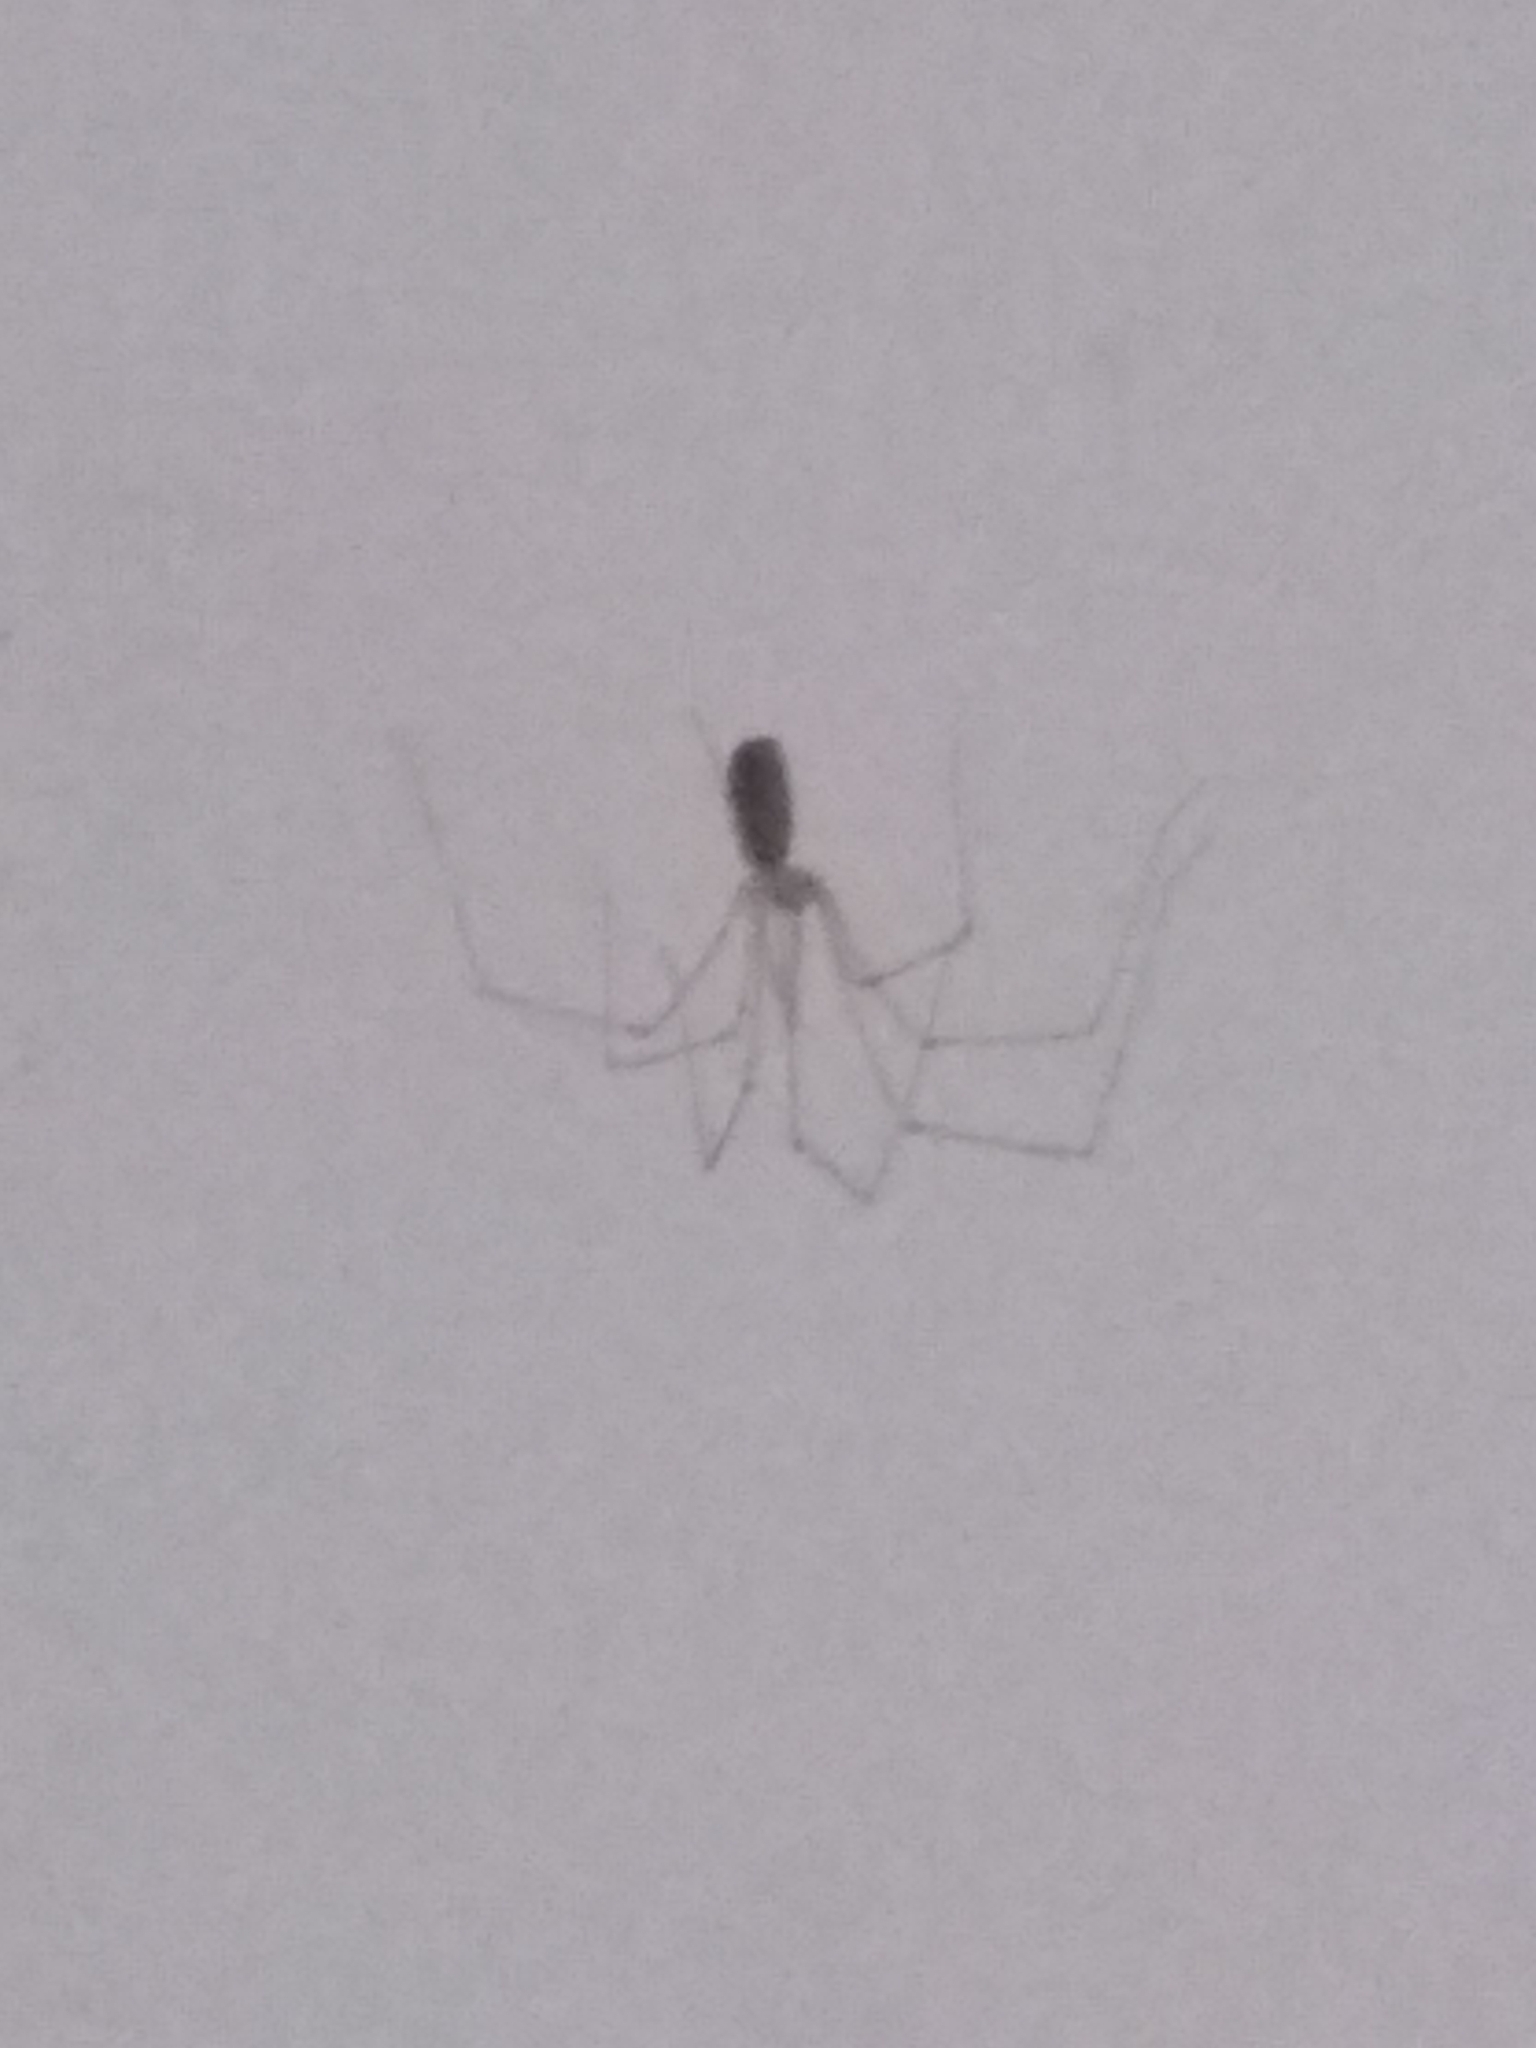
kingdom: Animalia
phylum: Arthropoda
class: Arachnida
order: Araneae
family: Pholcidae
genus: Pholcus
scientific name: Pholcus phalangioides
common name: Longbodied cellar spider
